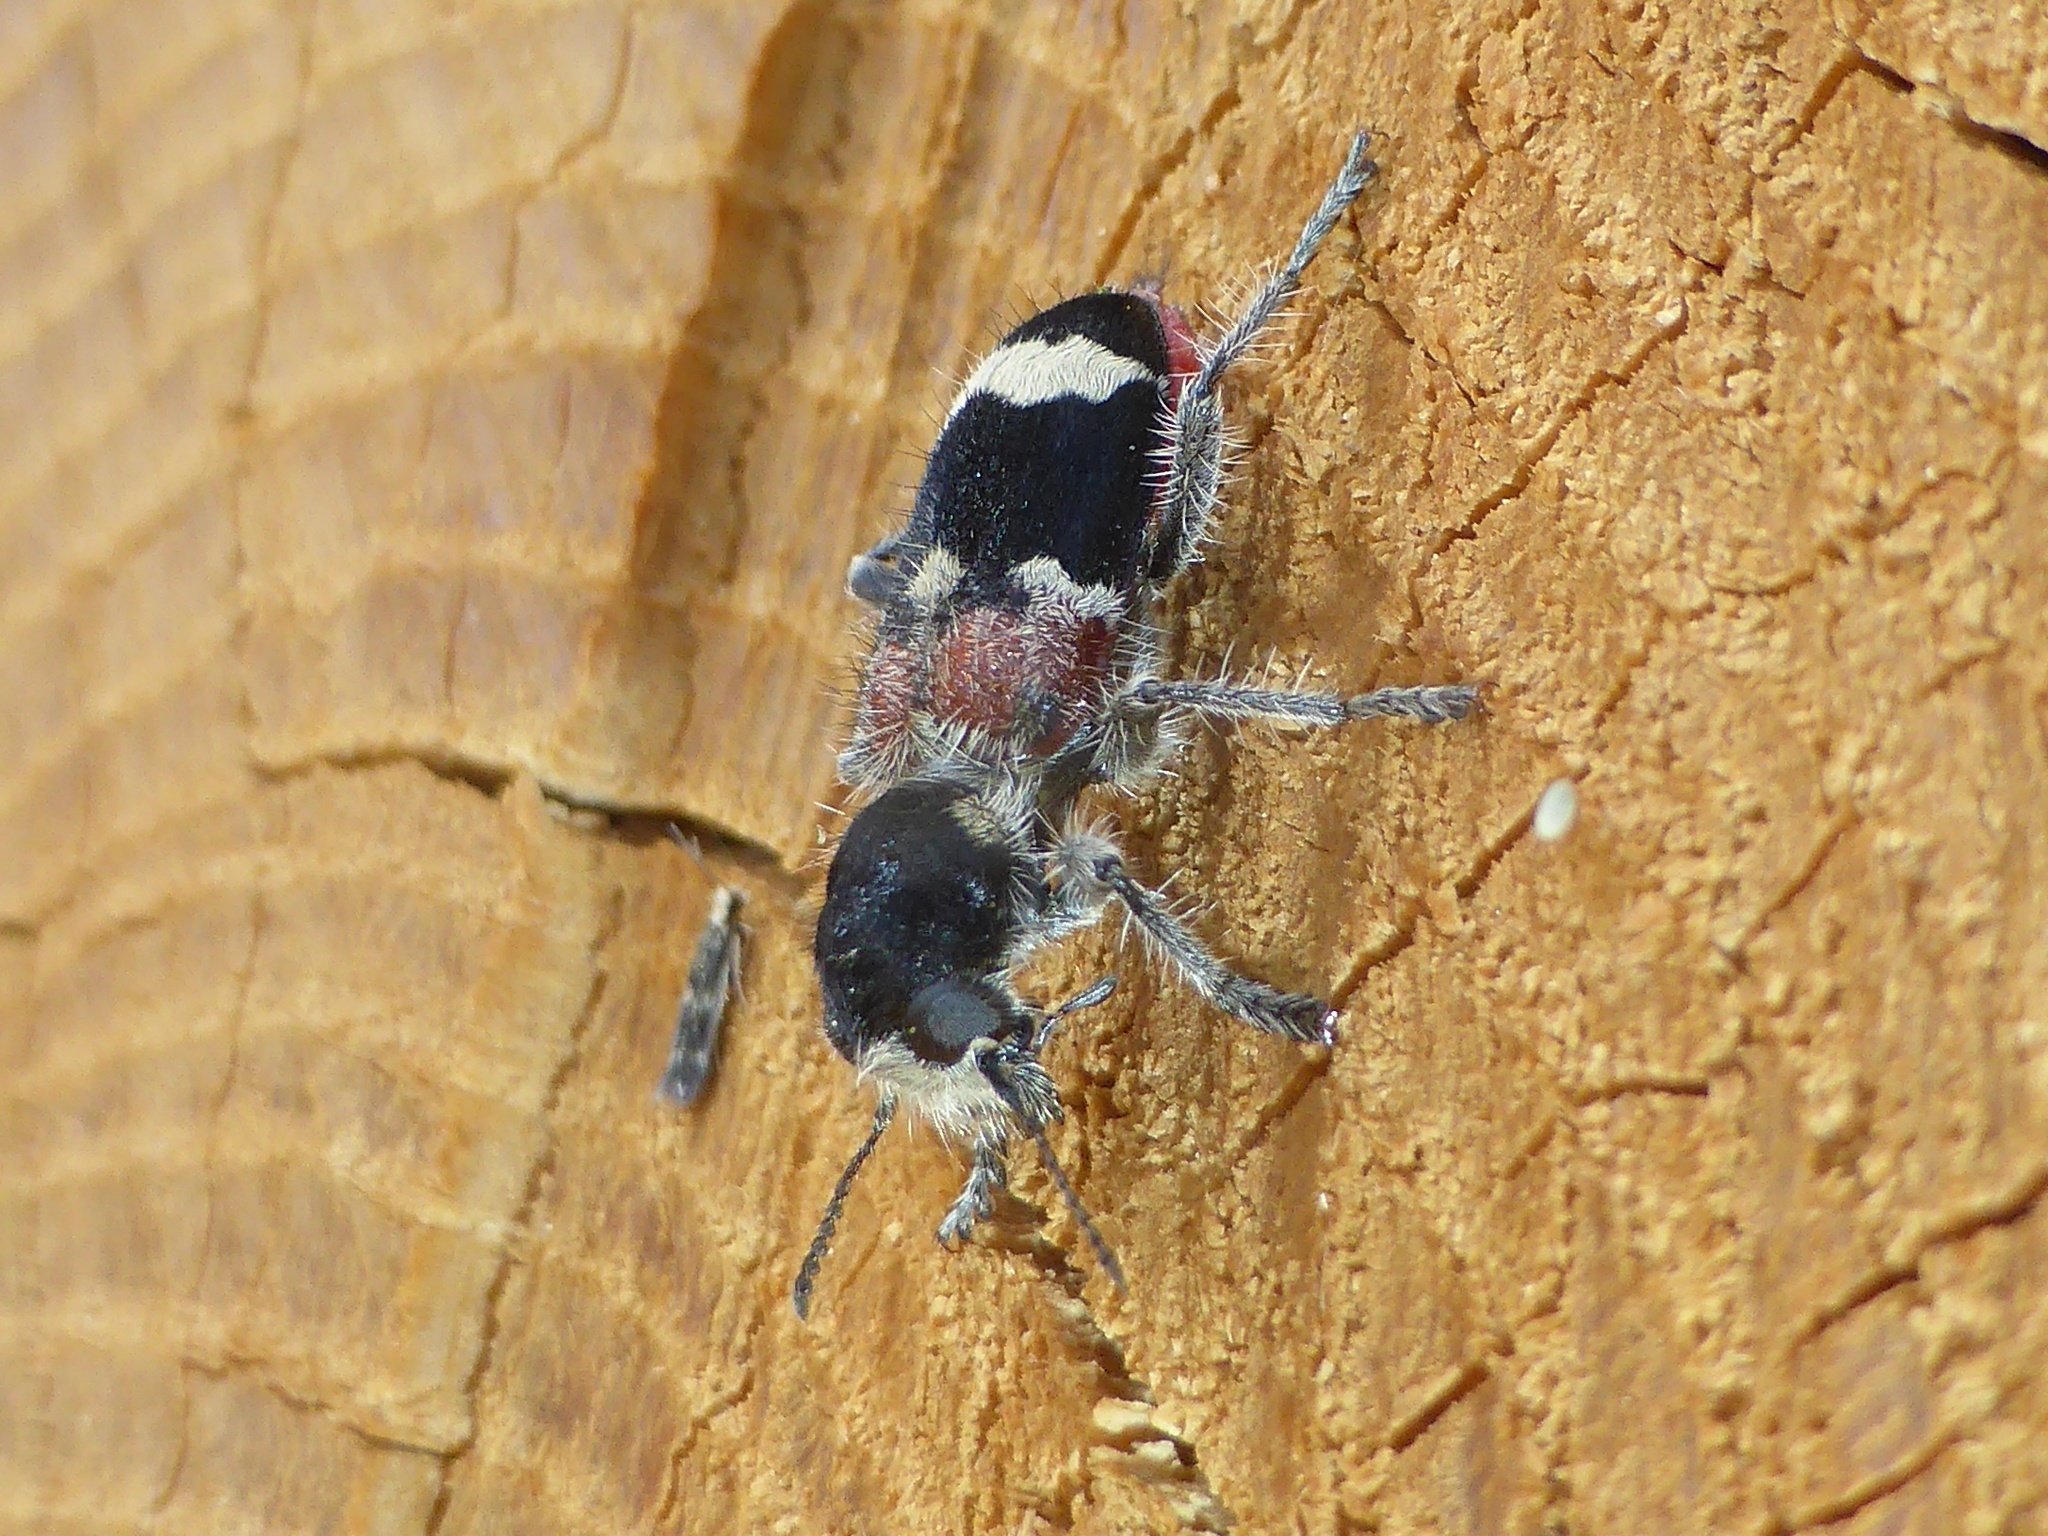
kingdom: Animalia
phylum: Arthropoda
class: Insecta
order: Coleoptera
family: Cleridae
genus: Clerus
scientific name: Clerus mutillarius
